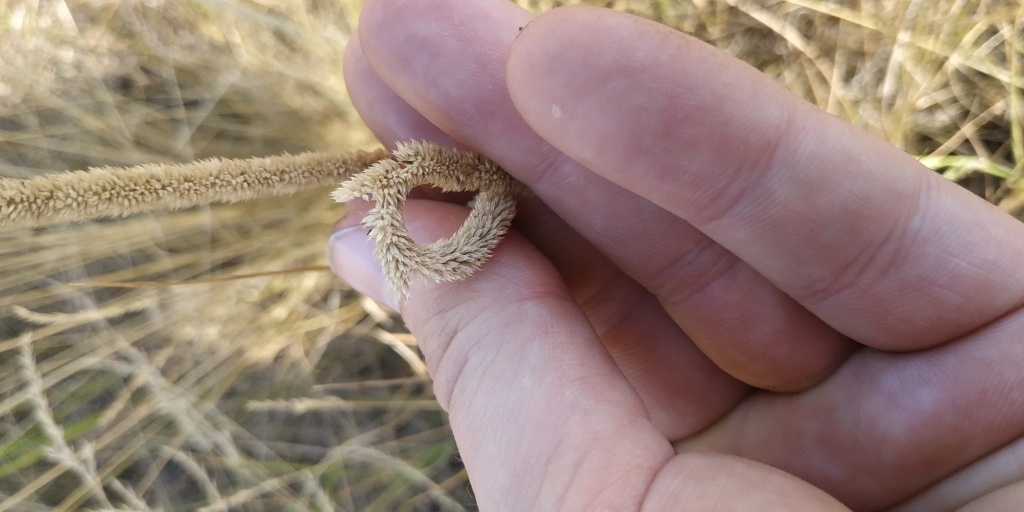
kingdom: Plantae
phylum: Tracheophyta
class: Liliopsida
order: Poales
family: Poaceae
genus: Phleum
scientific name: Phleum phleoides
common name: Purple-stem cat's-tail
